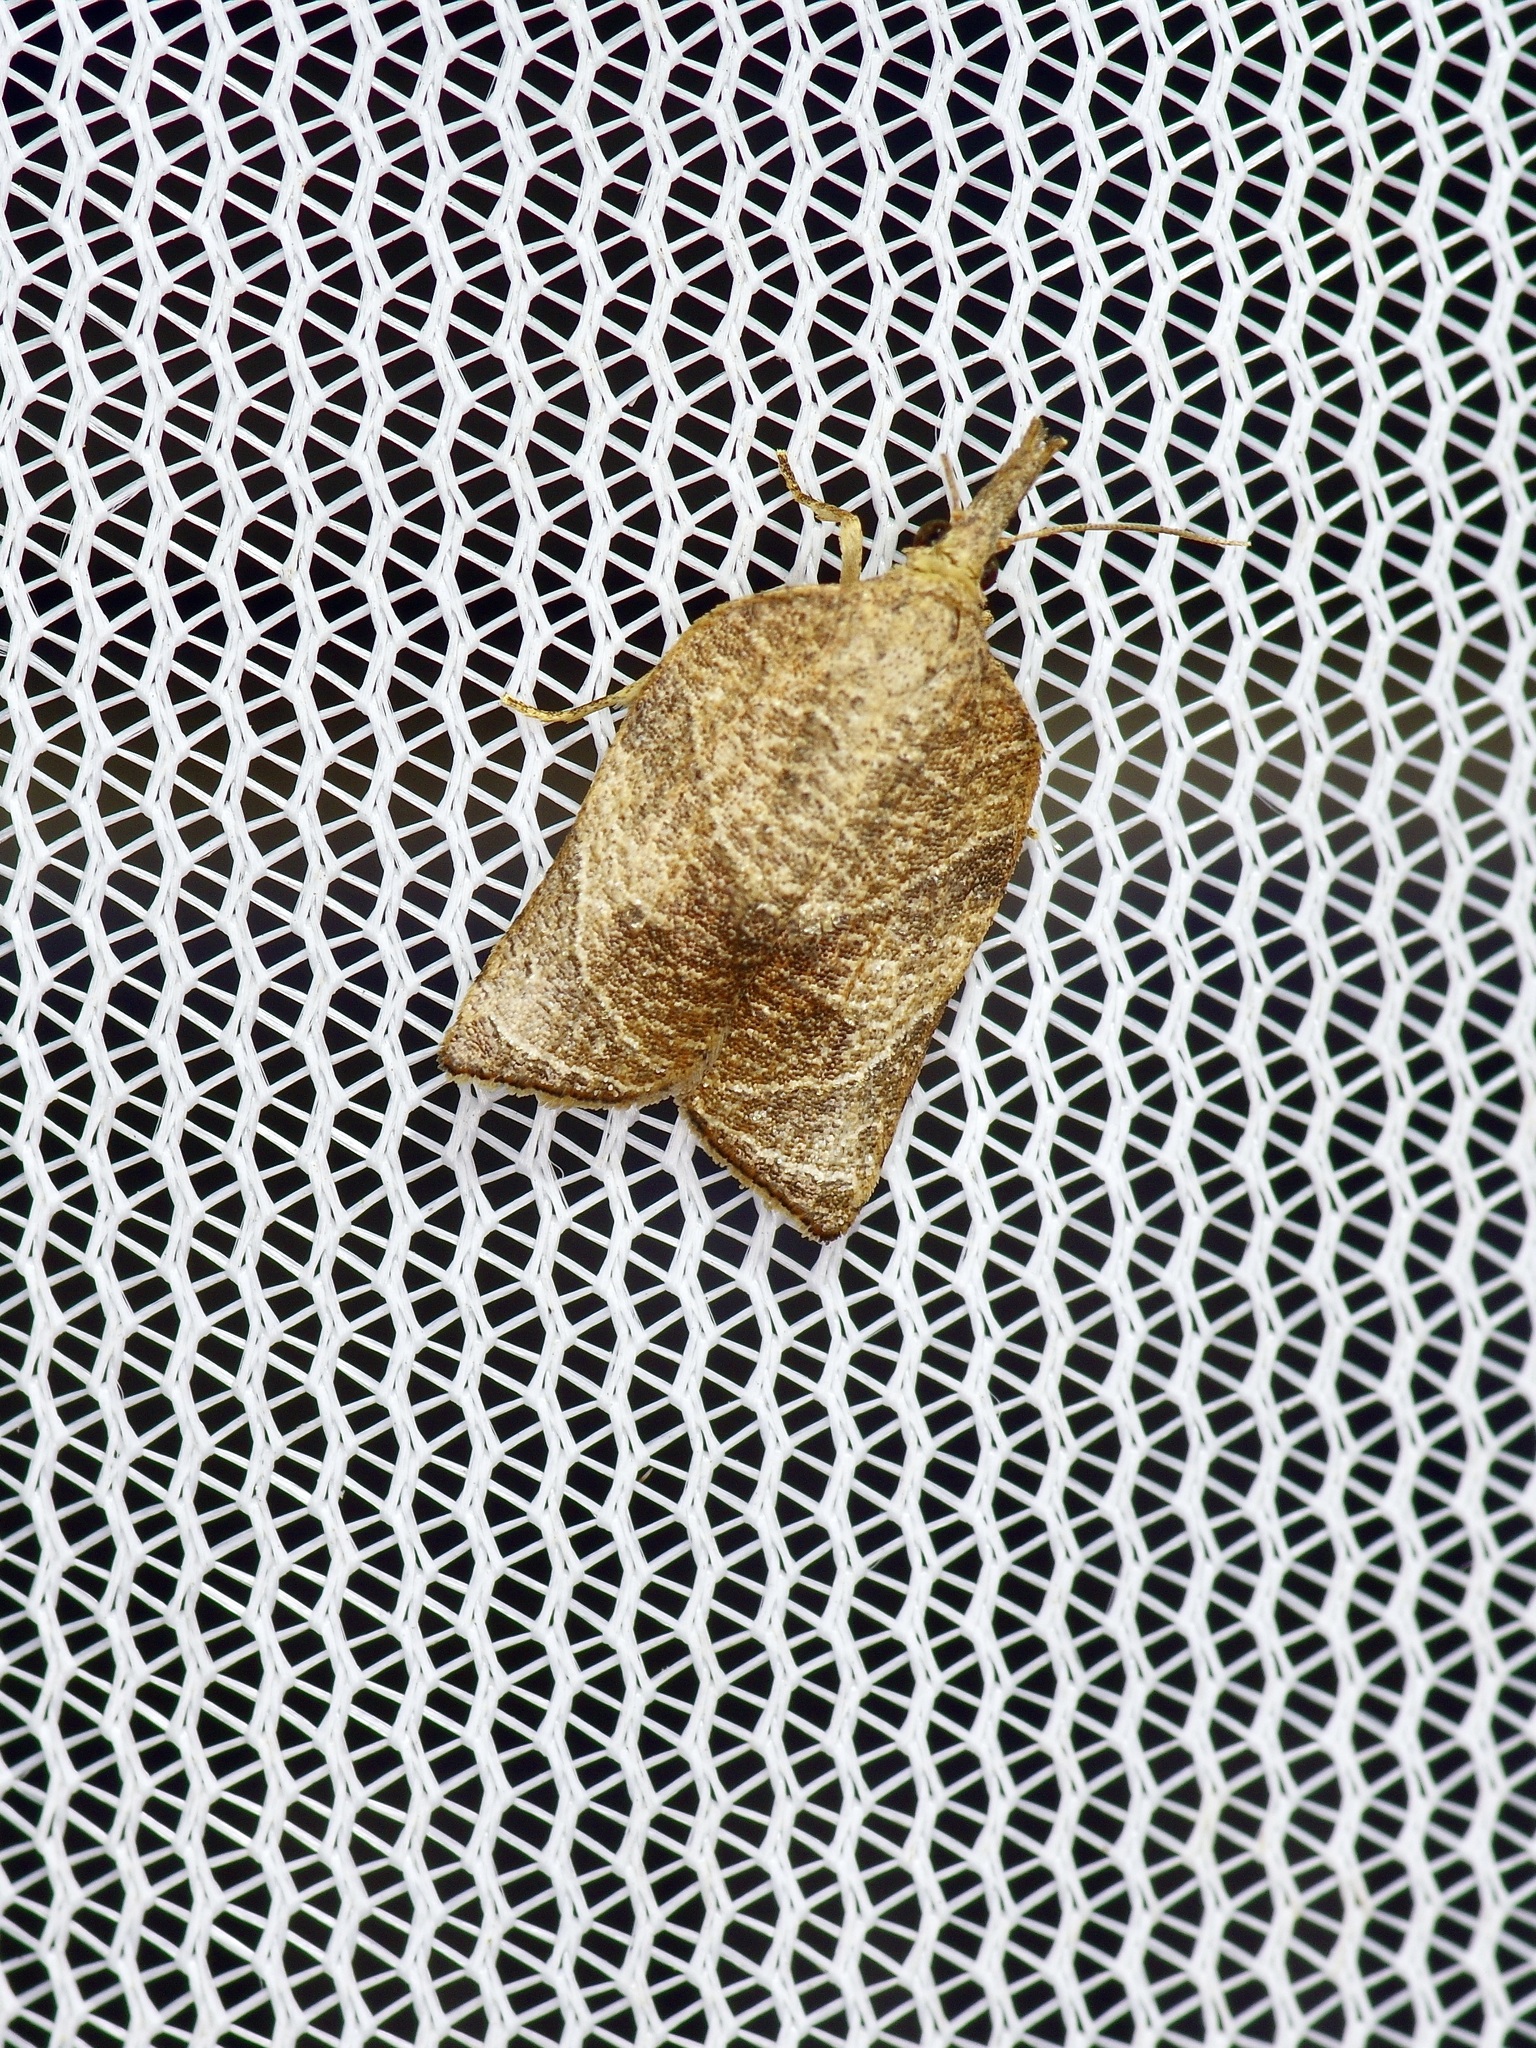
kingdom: Animalia
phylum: Arthropoda
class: Insecta
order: Lepidoptera
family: Tortricidae
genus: Platynota
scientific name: Platynota rostrana
